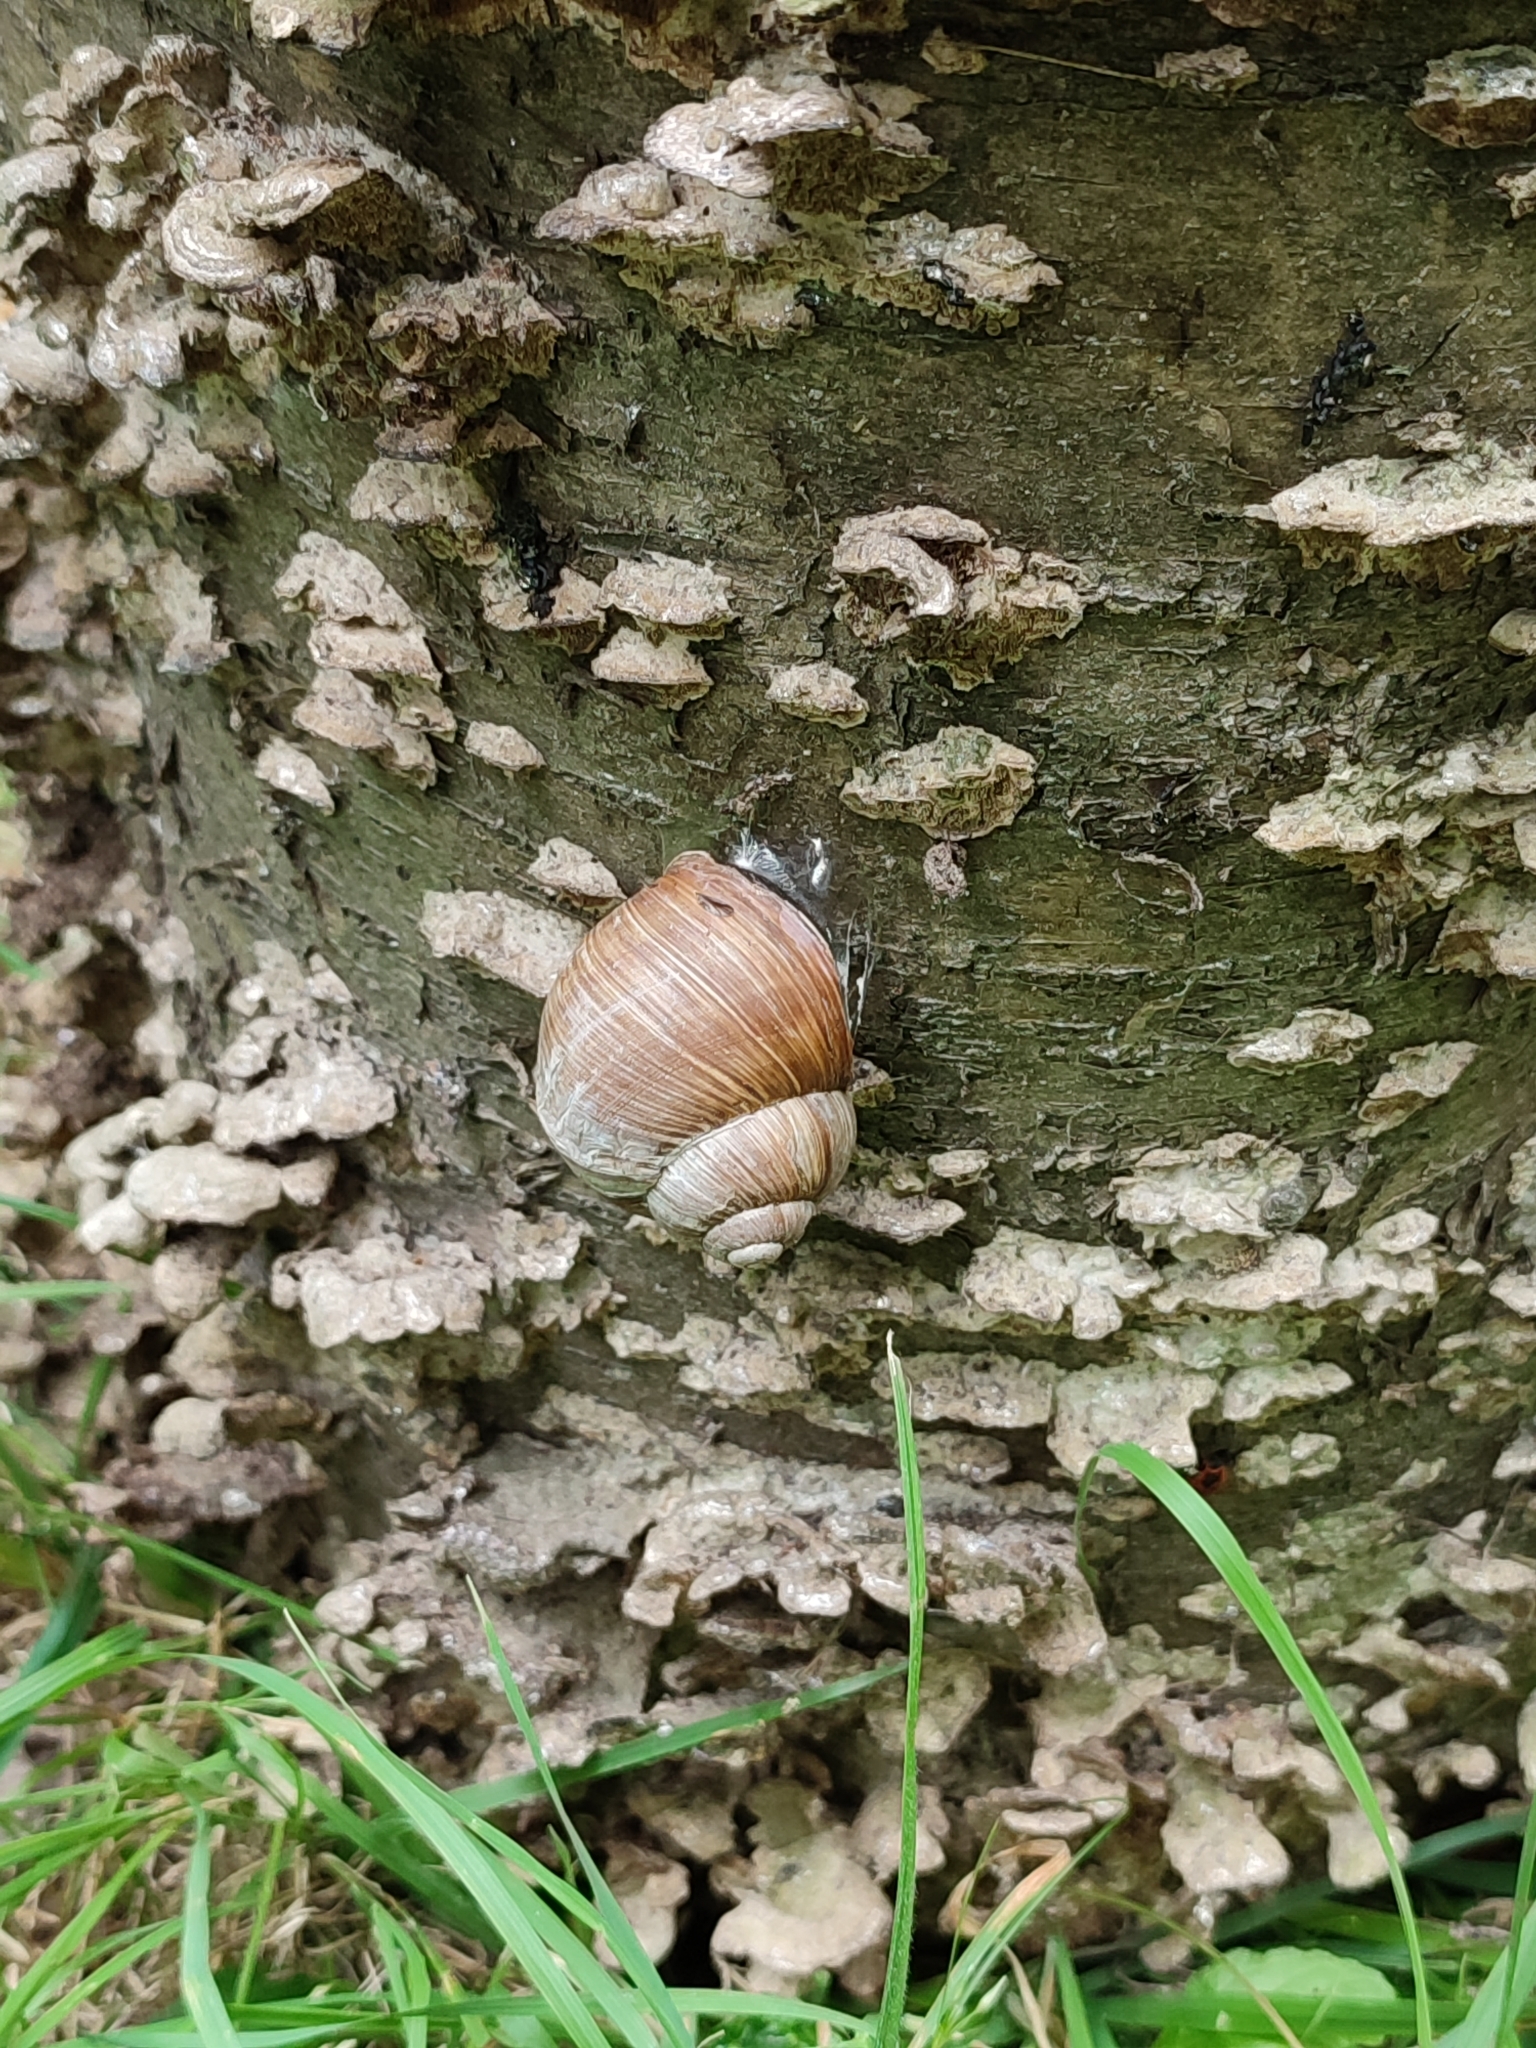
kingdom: Animalia
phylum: Mollusca
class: Gastropoda
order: Stylommatophora
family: Helicidae
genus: Helix
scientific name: Helix pomatia
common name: Roman snail
